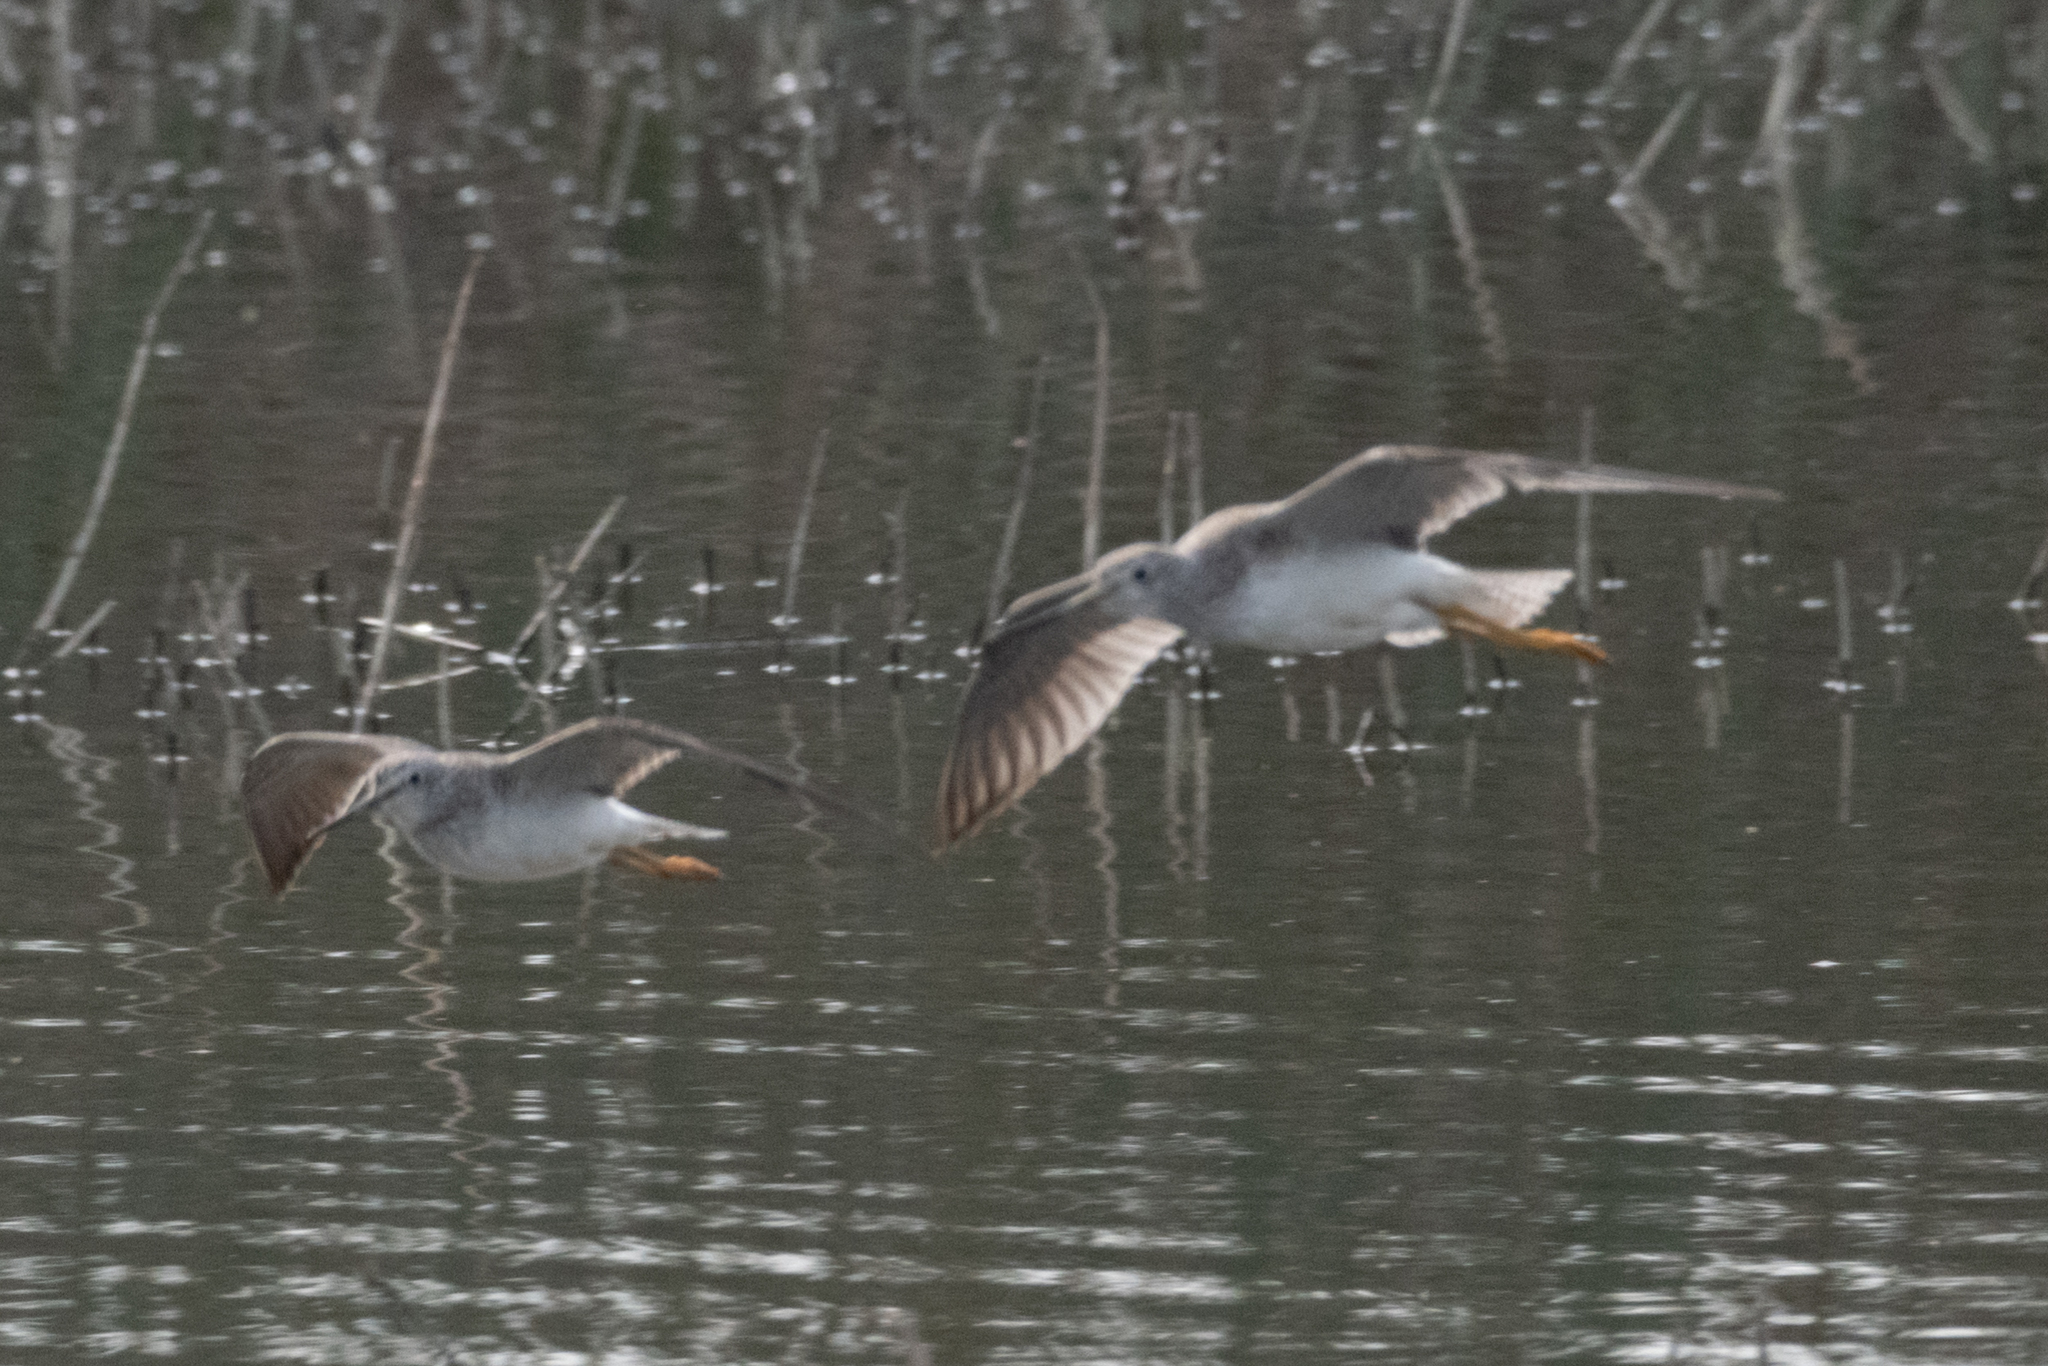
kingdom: Animalia
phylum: Chordata
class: Aves
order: Charadriiformes
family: Scolopacidae
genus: Tringa
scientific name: Tringa melanoleuca
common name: Greater yellowlegs
